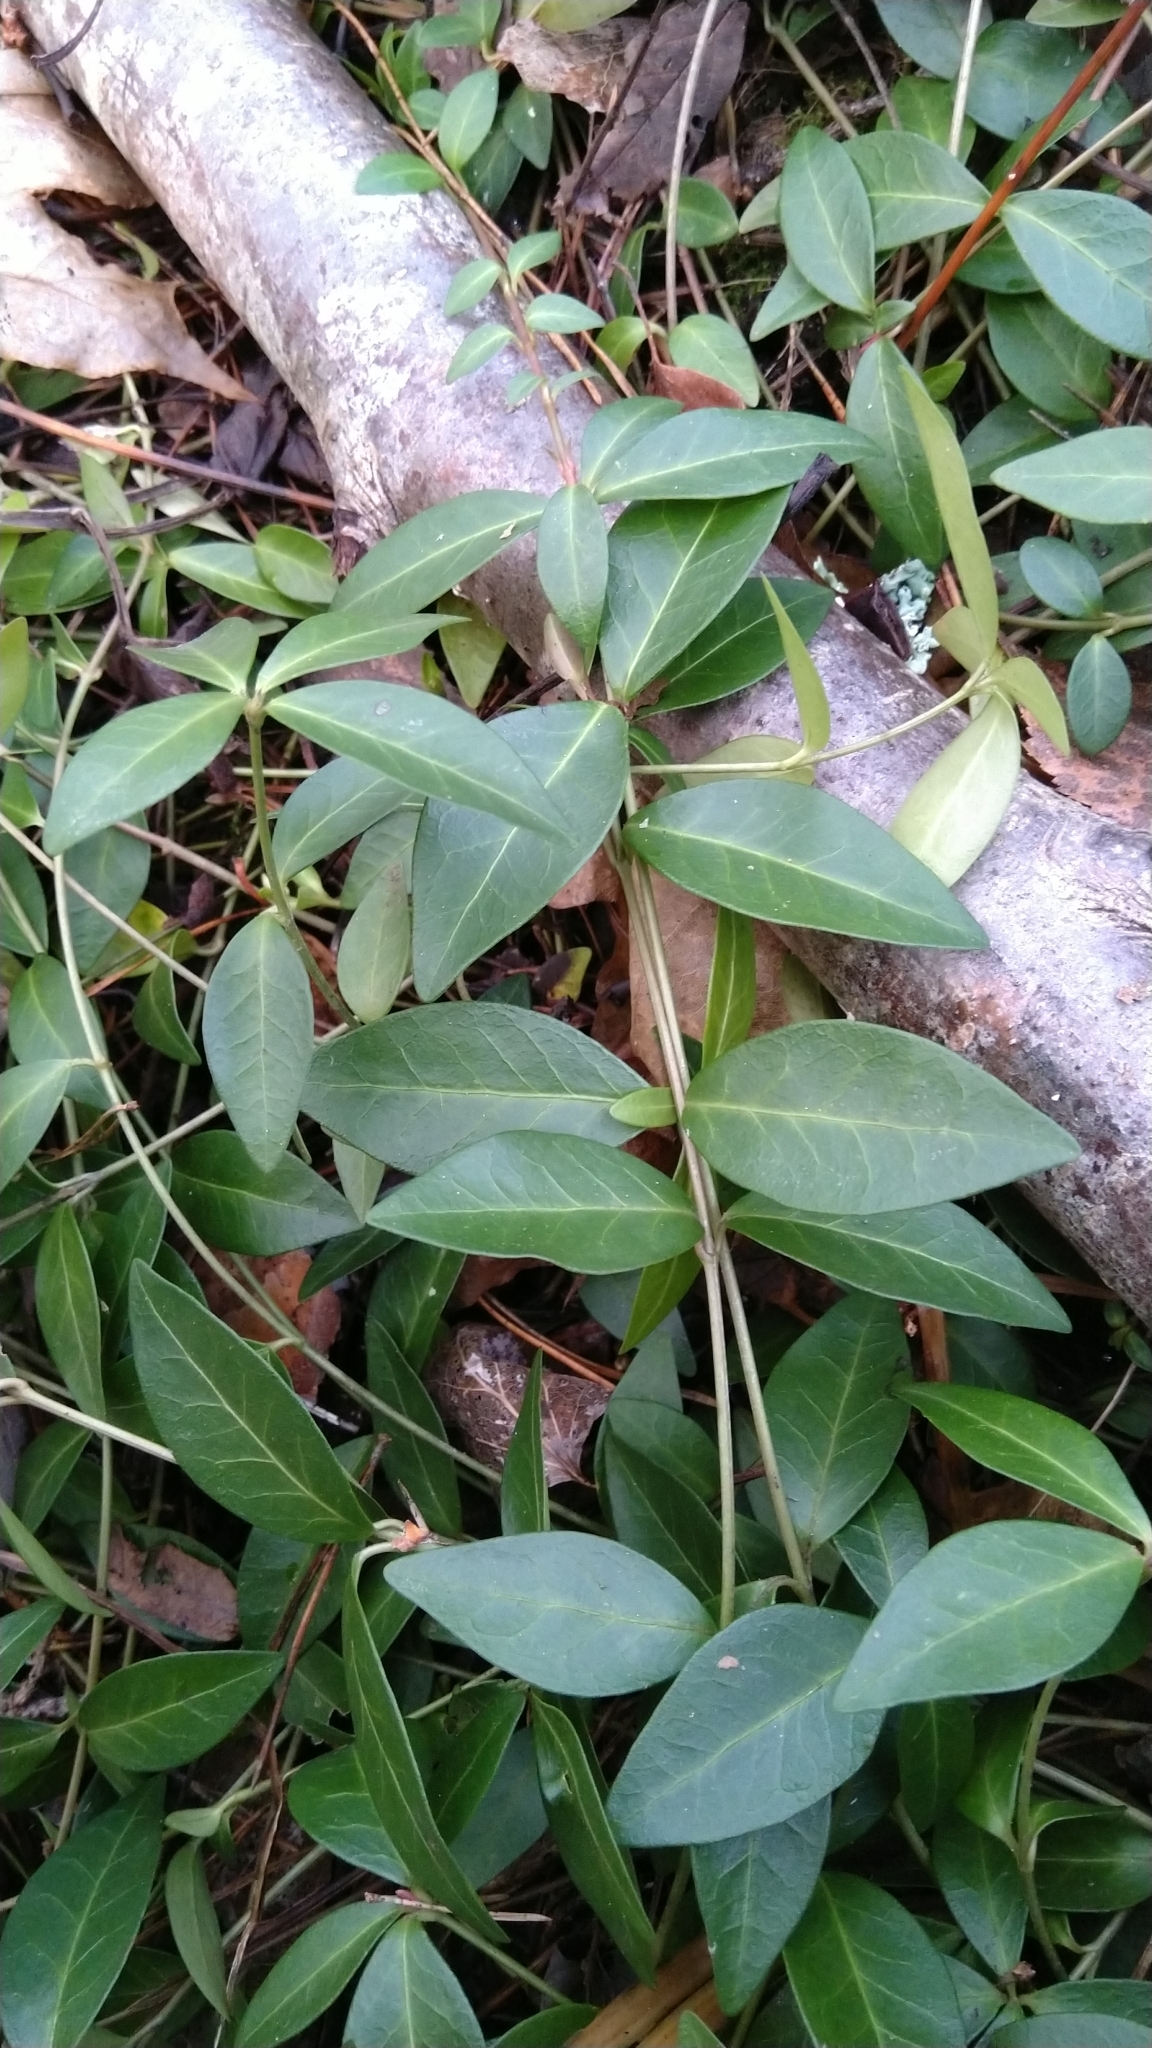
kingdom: Plantae
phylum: Tracheophyta
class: Magnoliopsida
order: Gentianales
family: Apocynaceae
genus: Vinca
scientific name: Vinca minor
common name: Lesser periwinkle
